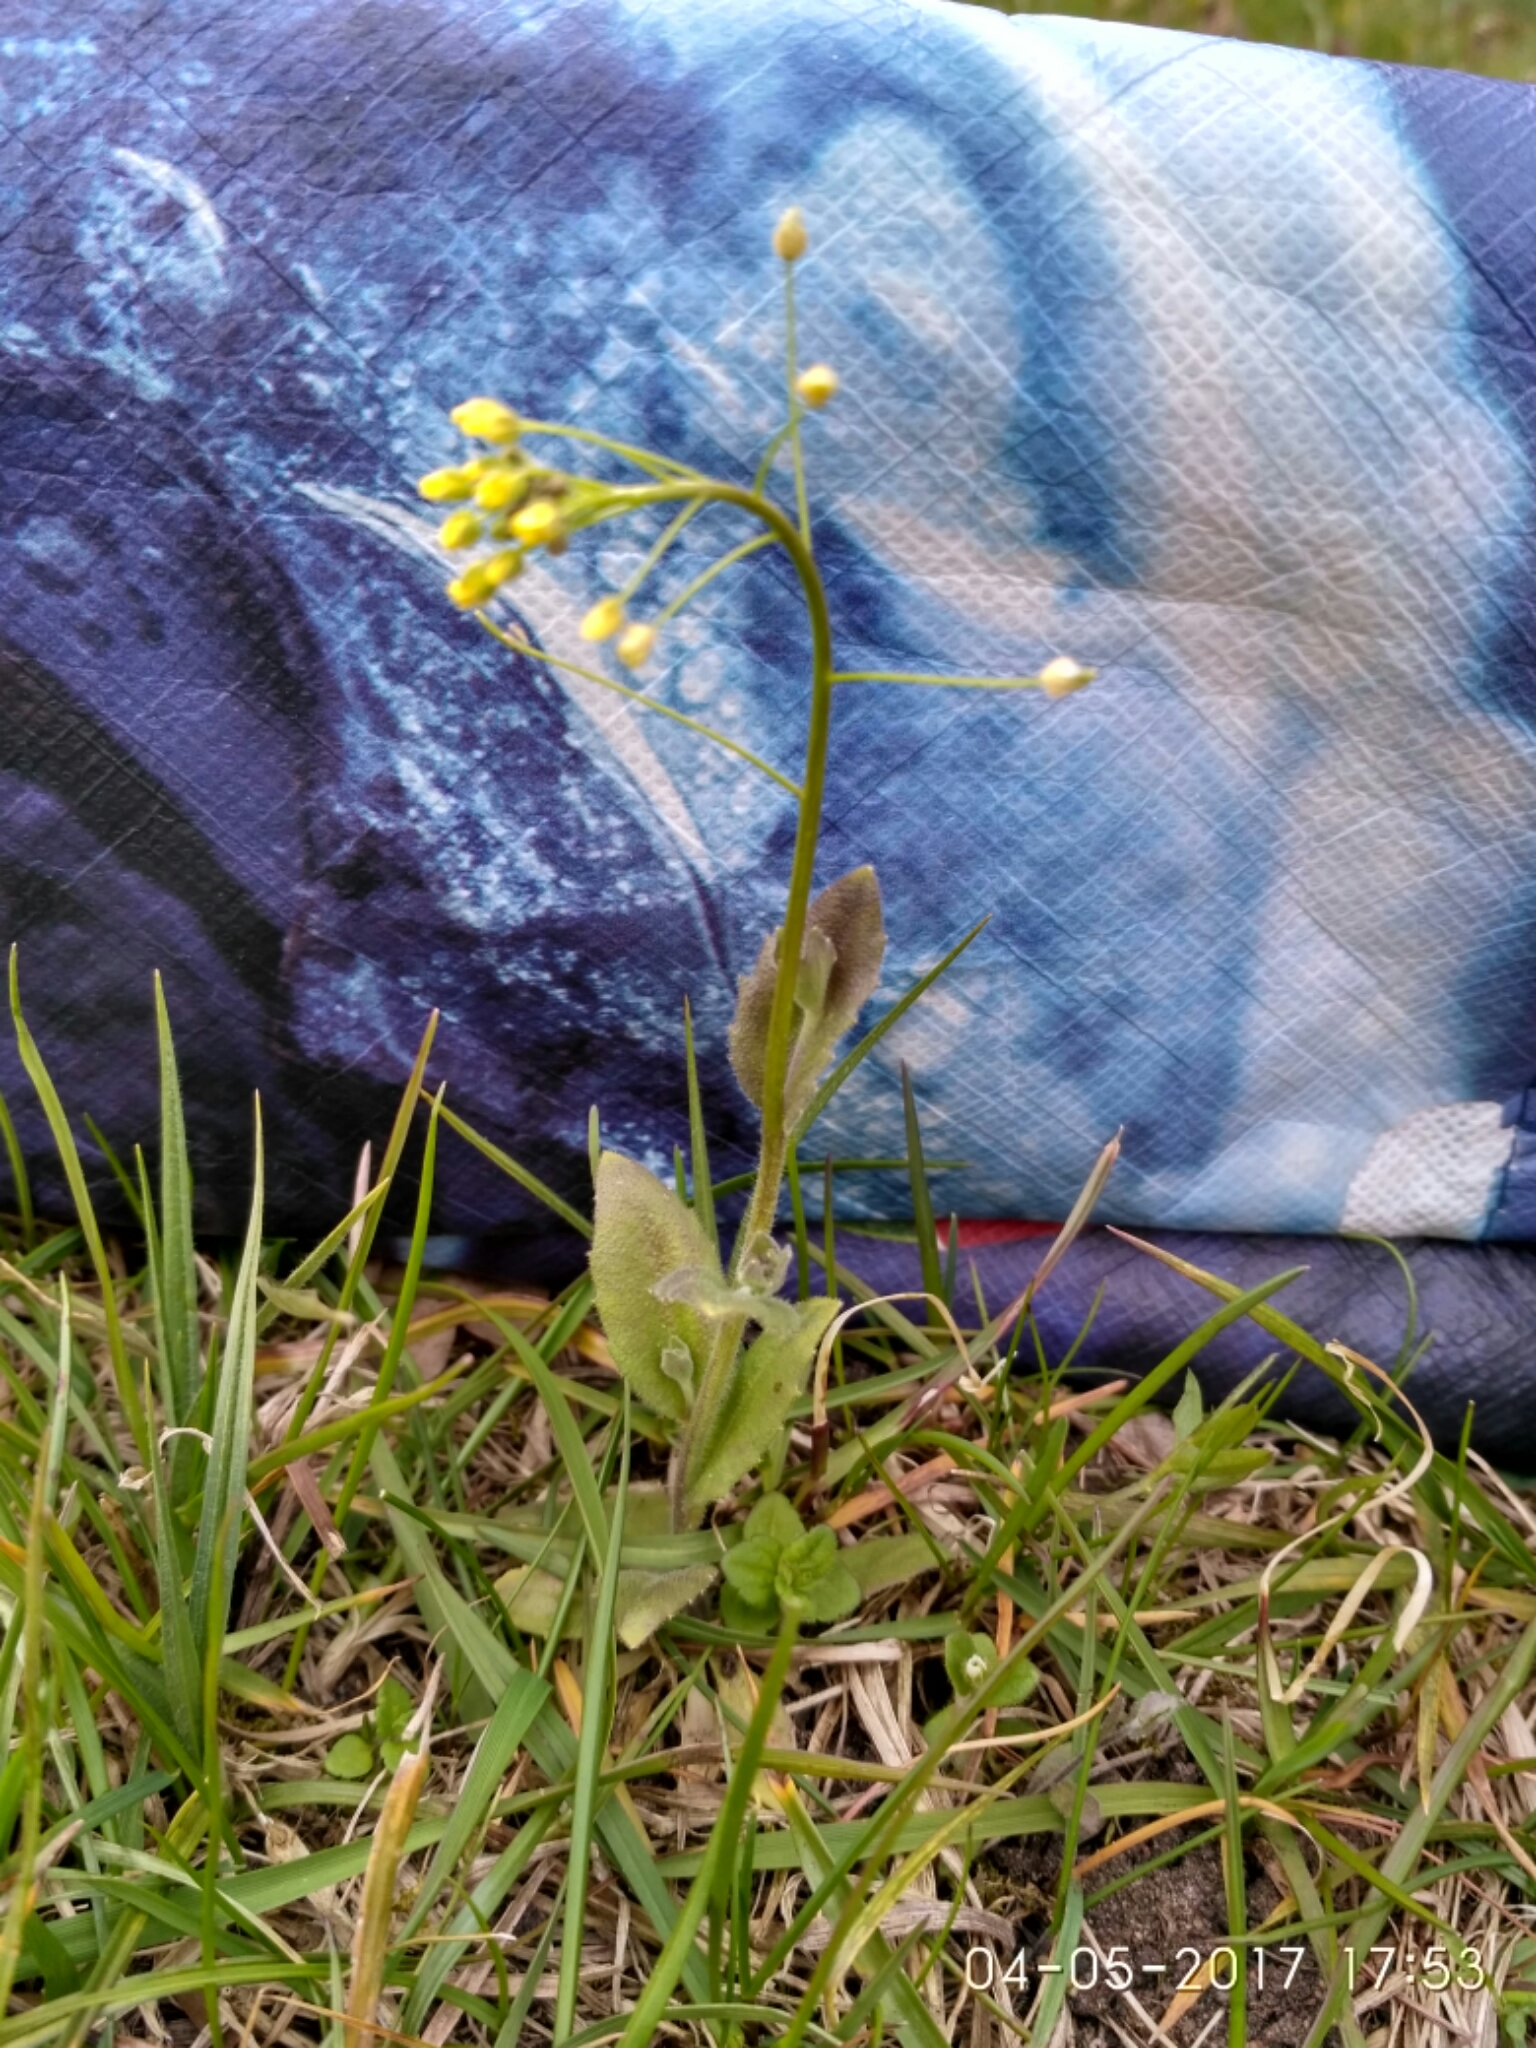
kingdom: Plantae
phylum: Tracheophyta
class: Magnoliopsida
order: Brassicales
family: Brassicaceae
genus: Draba
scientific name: Draba nemorosa
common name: Wood whitlow-grass
